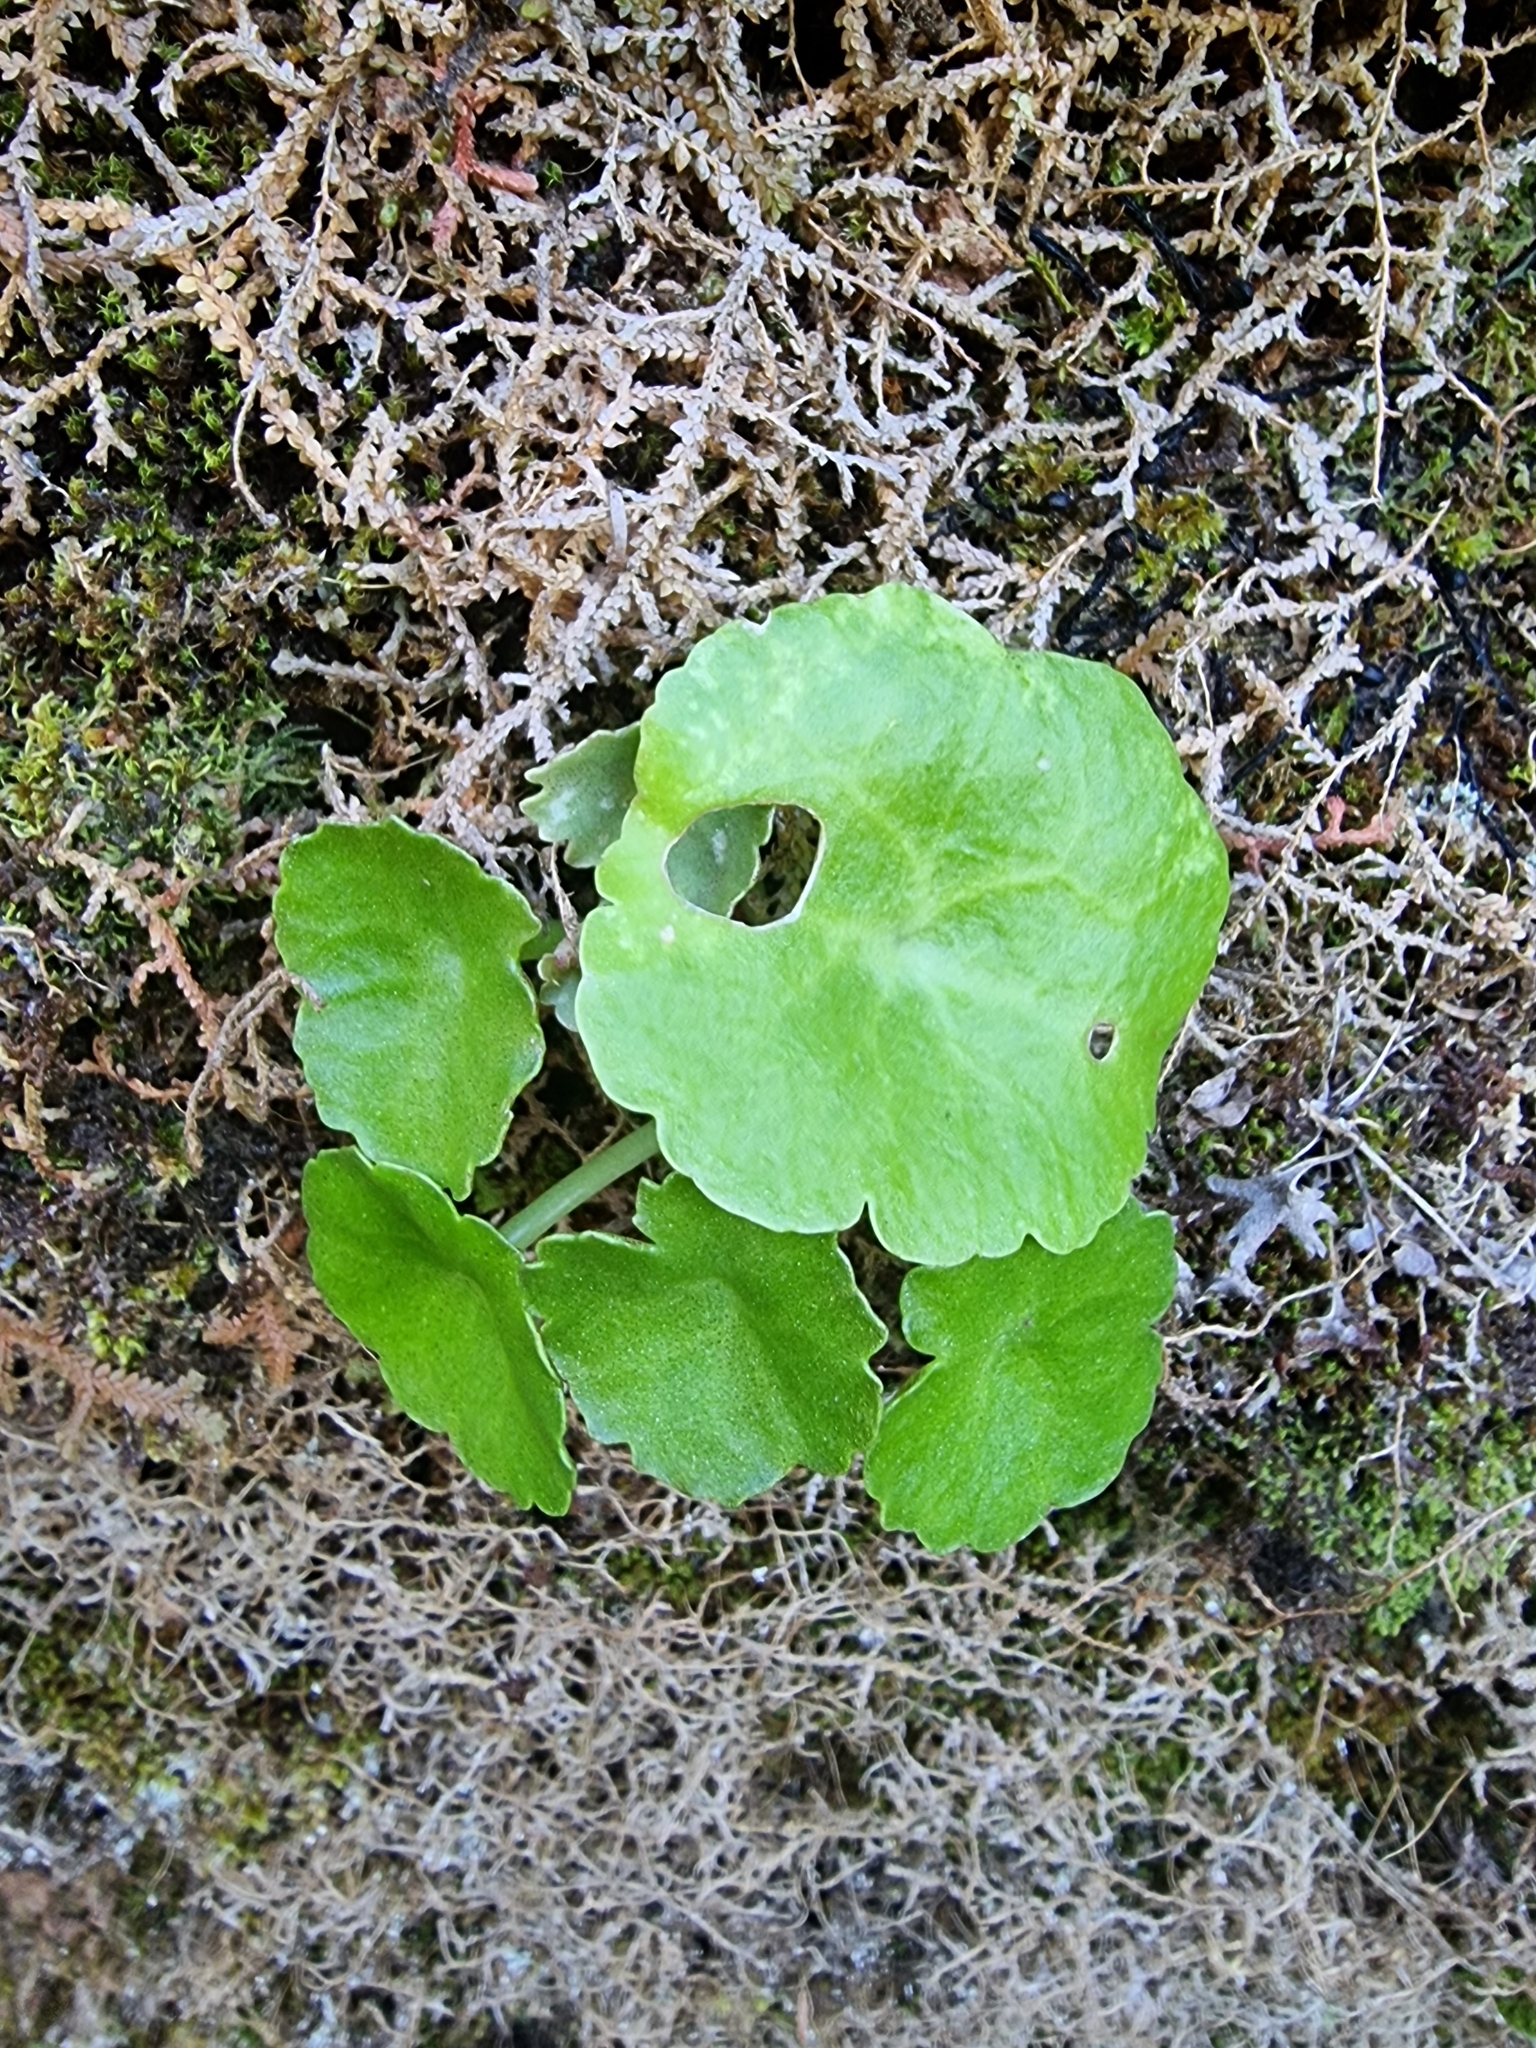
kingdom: Plantae
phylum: Tracheophyta
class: Magnoliopsida
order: Saxifragales
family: Crassulaceae
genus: Umbilicus
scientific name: Umbilicus rupestris
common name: Navelwort
